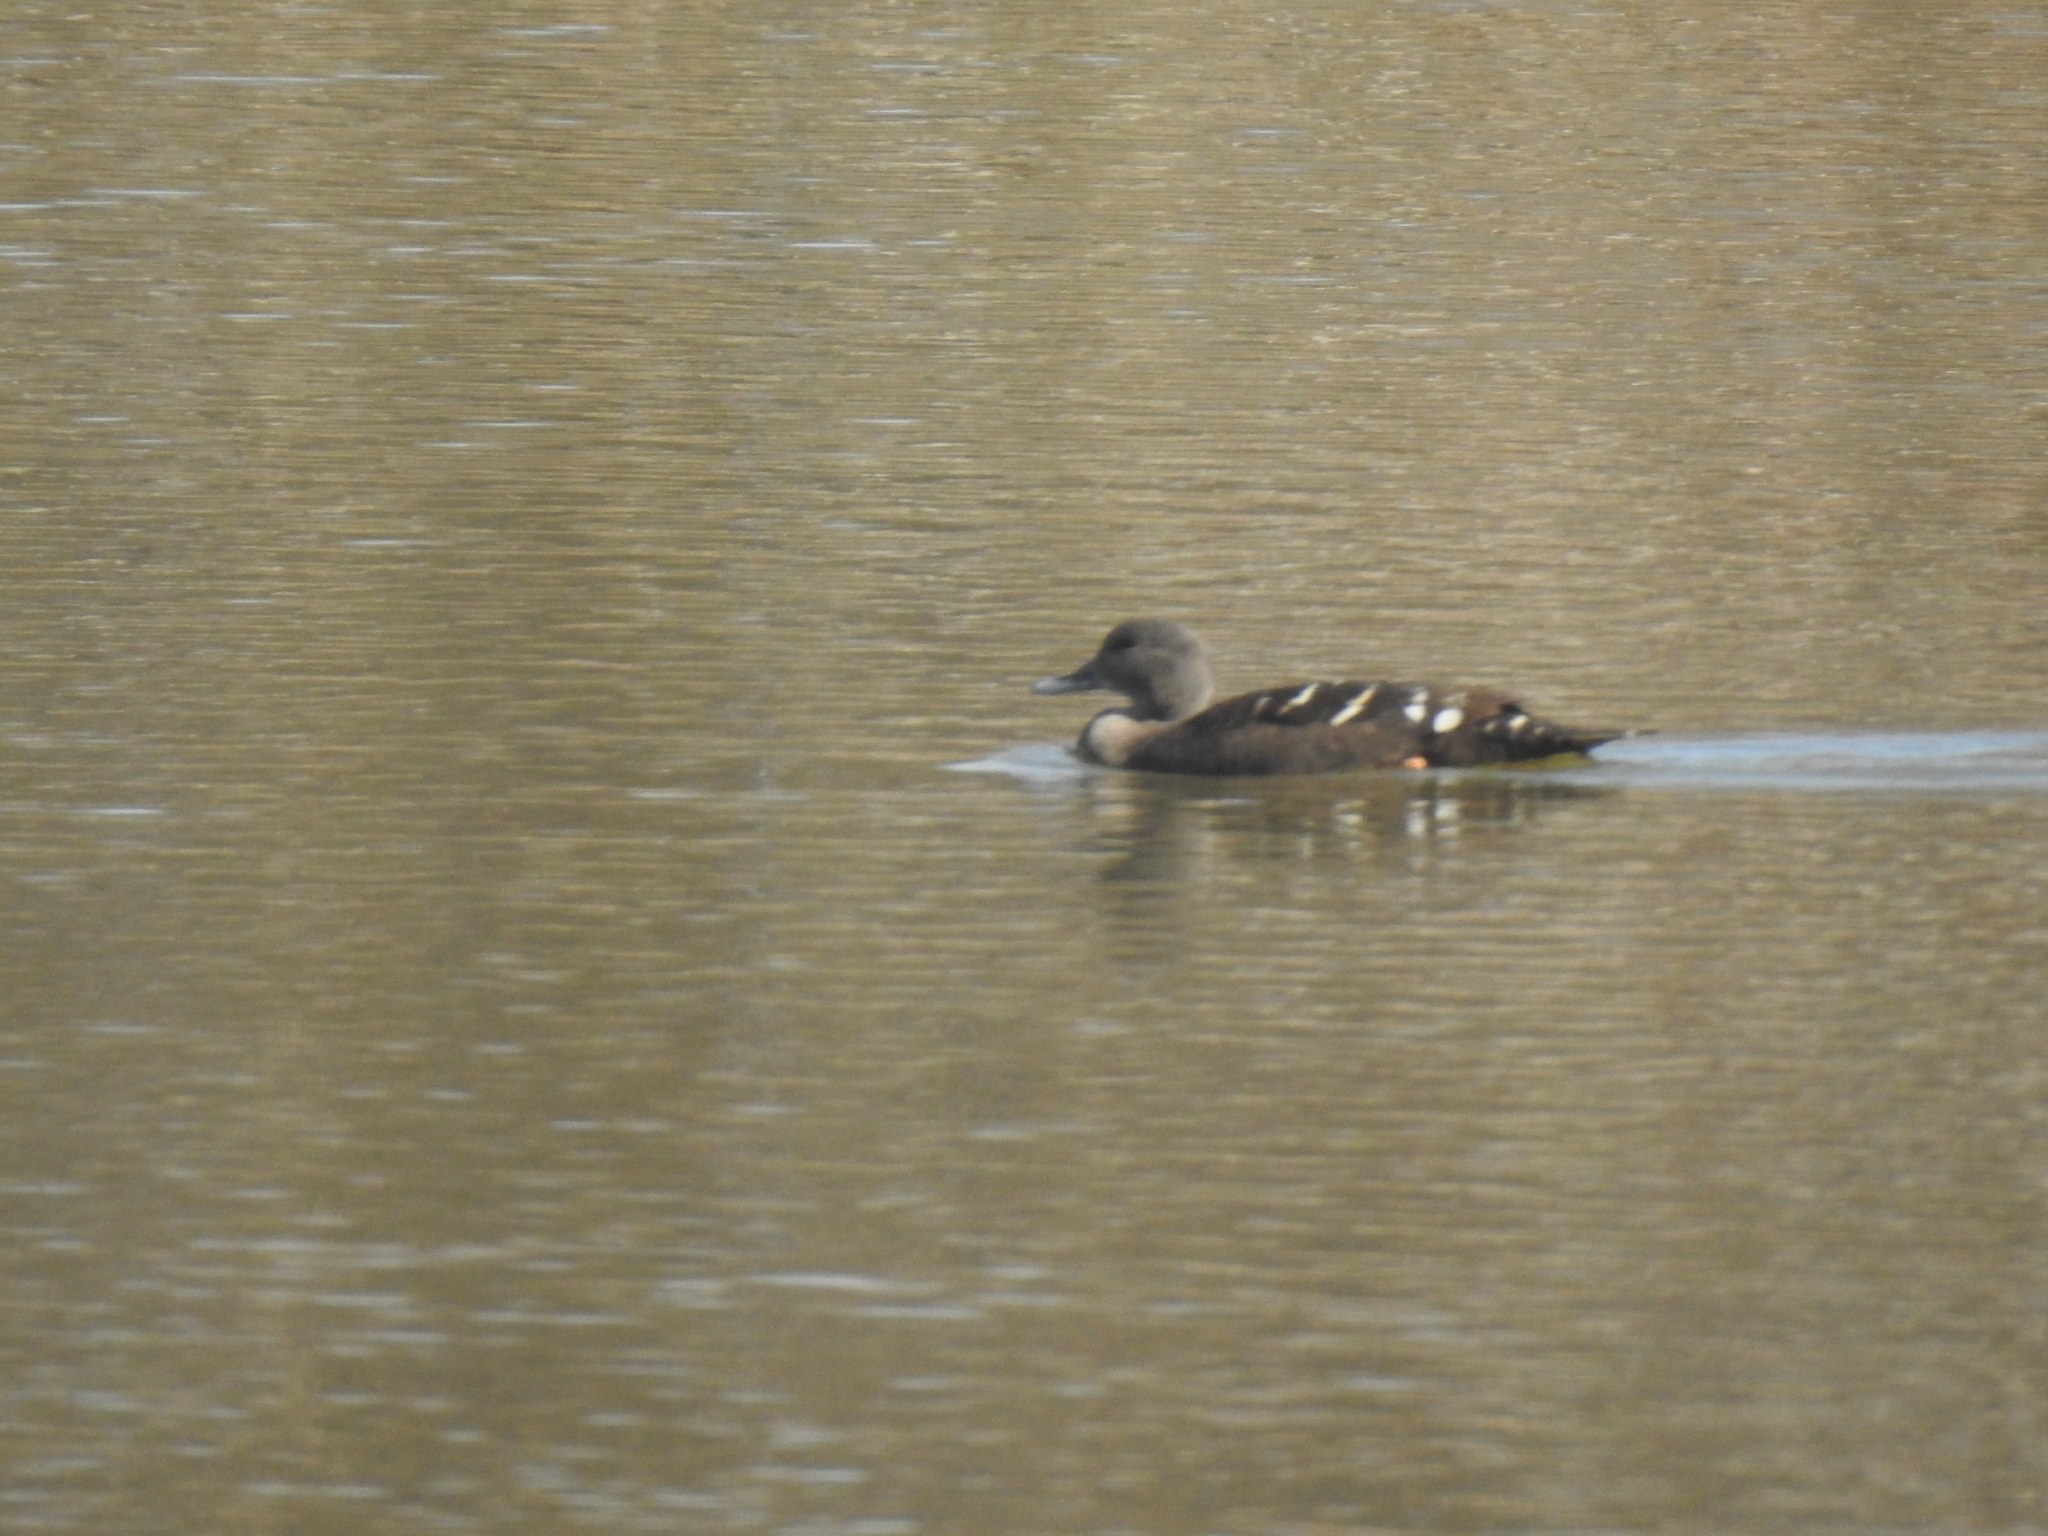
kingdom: Animalia
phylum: Chordata
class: Aves
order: Anseriformes
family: Anatidae
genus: Anas
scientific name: Anas sparsa
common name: African black duck
